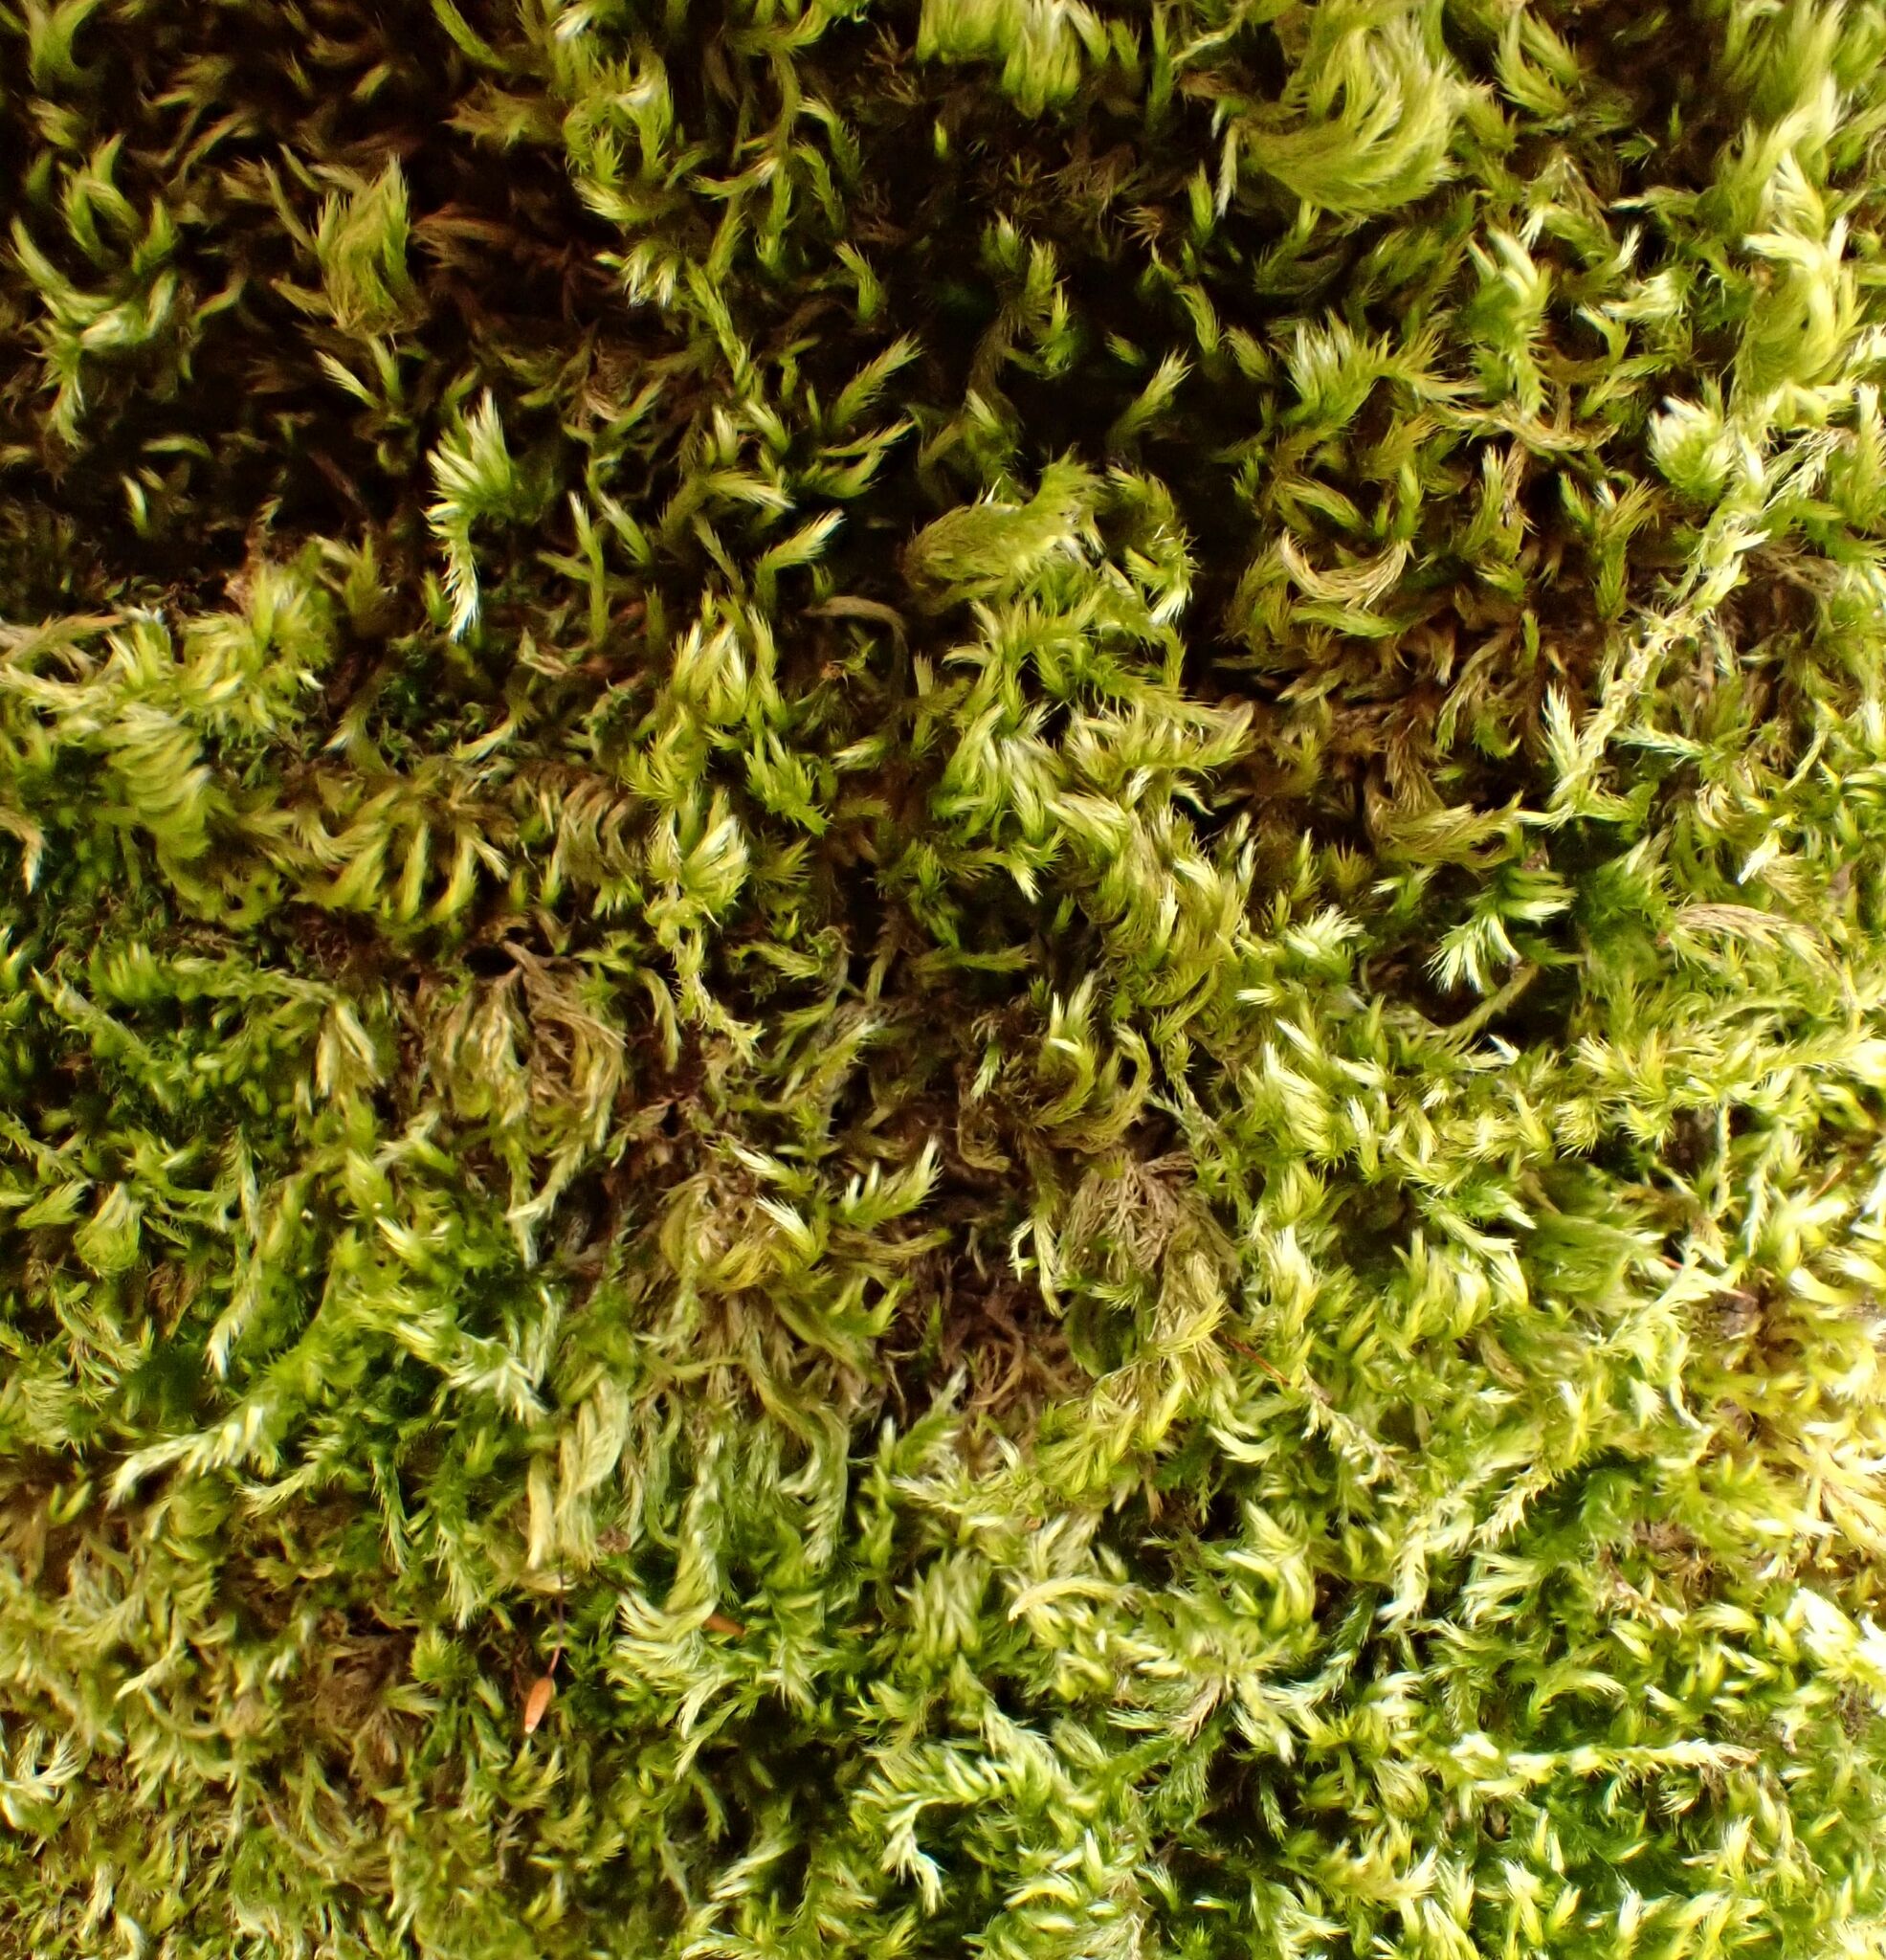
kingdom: Plantae
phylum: Bryophyta
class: Bryopsida
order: Hypnales
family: Brachytheciaceae
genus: Homalothecium
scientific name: Homalothecium sericeum
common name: Silky wall feather-moss
